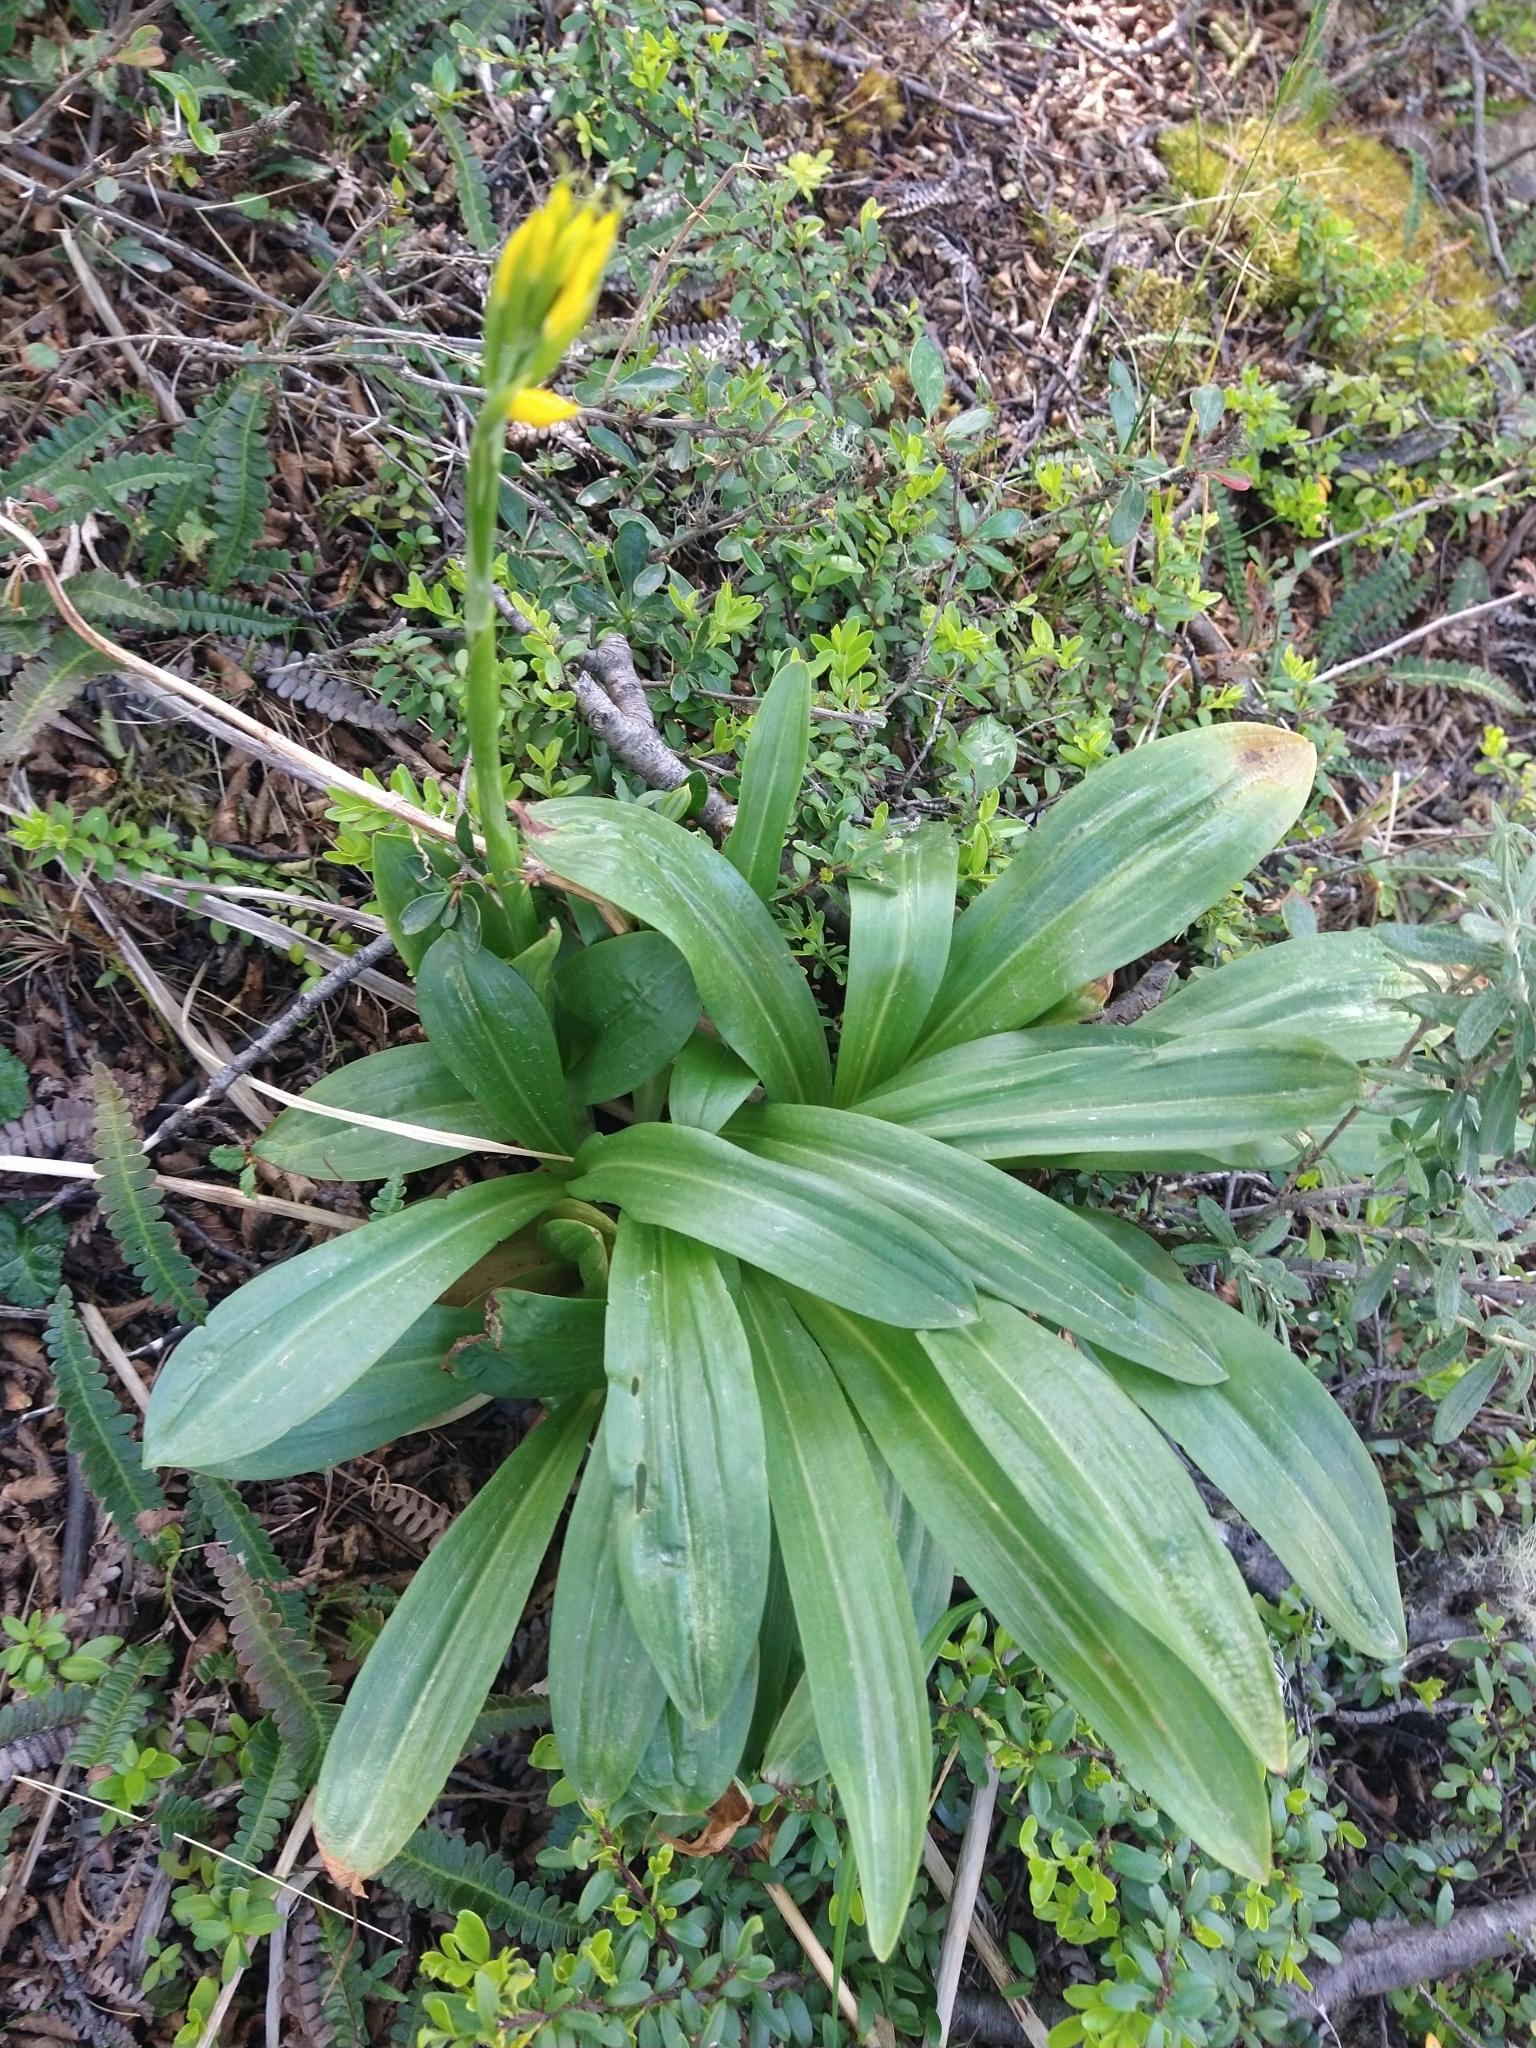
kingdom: Plantae
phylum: Tracheophyta
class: Liliopsida
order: Asparagales
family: Orchidaceae
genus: Gavilea
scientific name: Gavilea lutea
